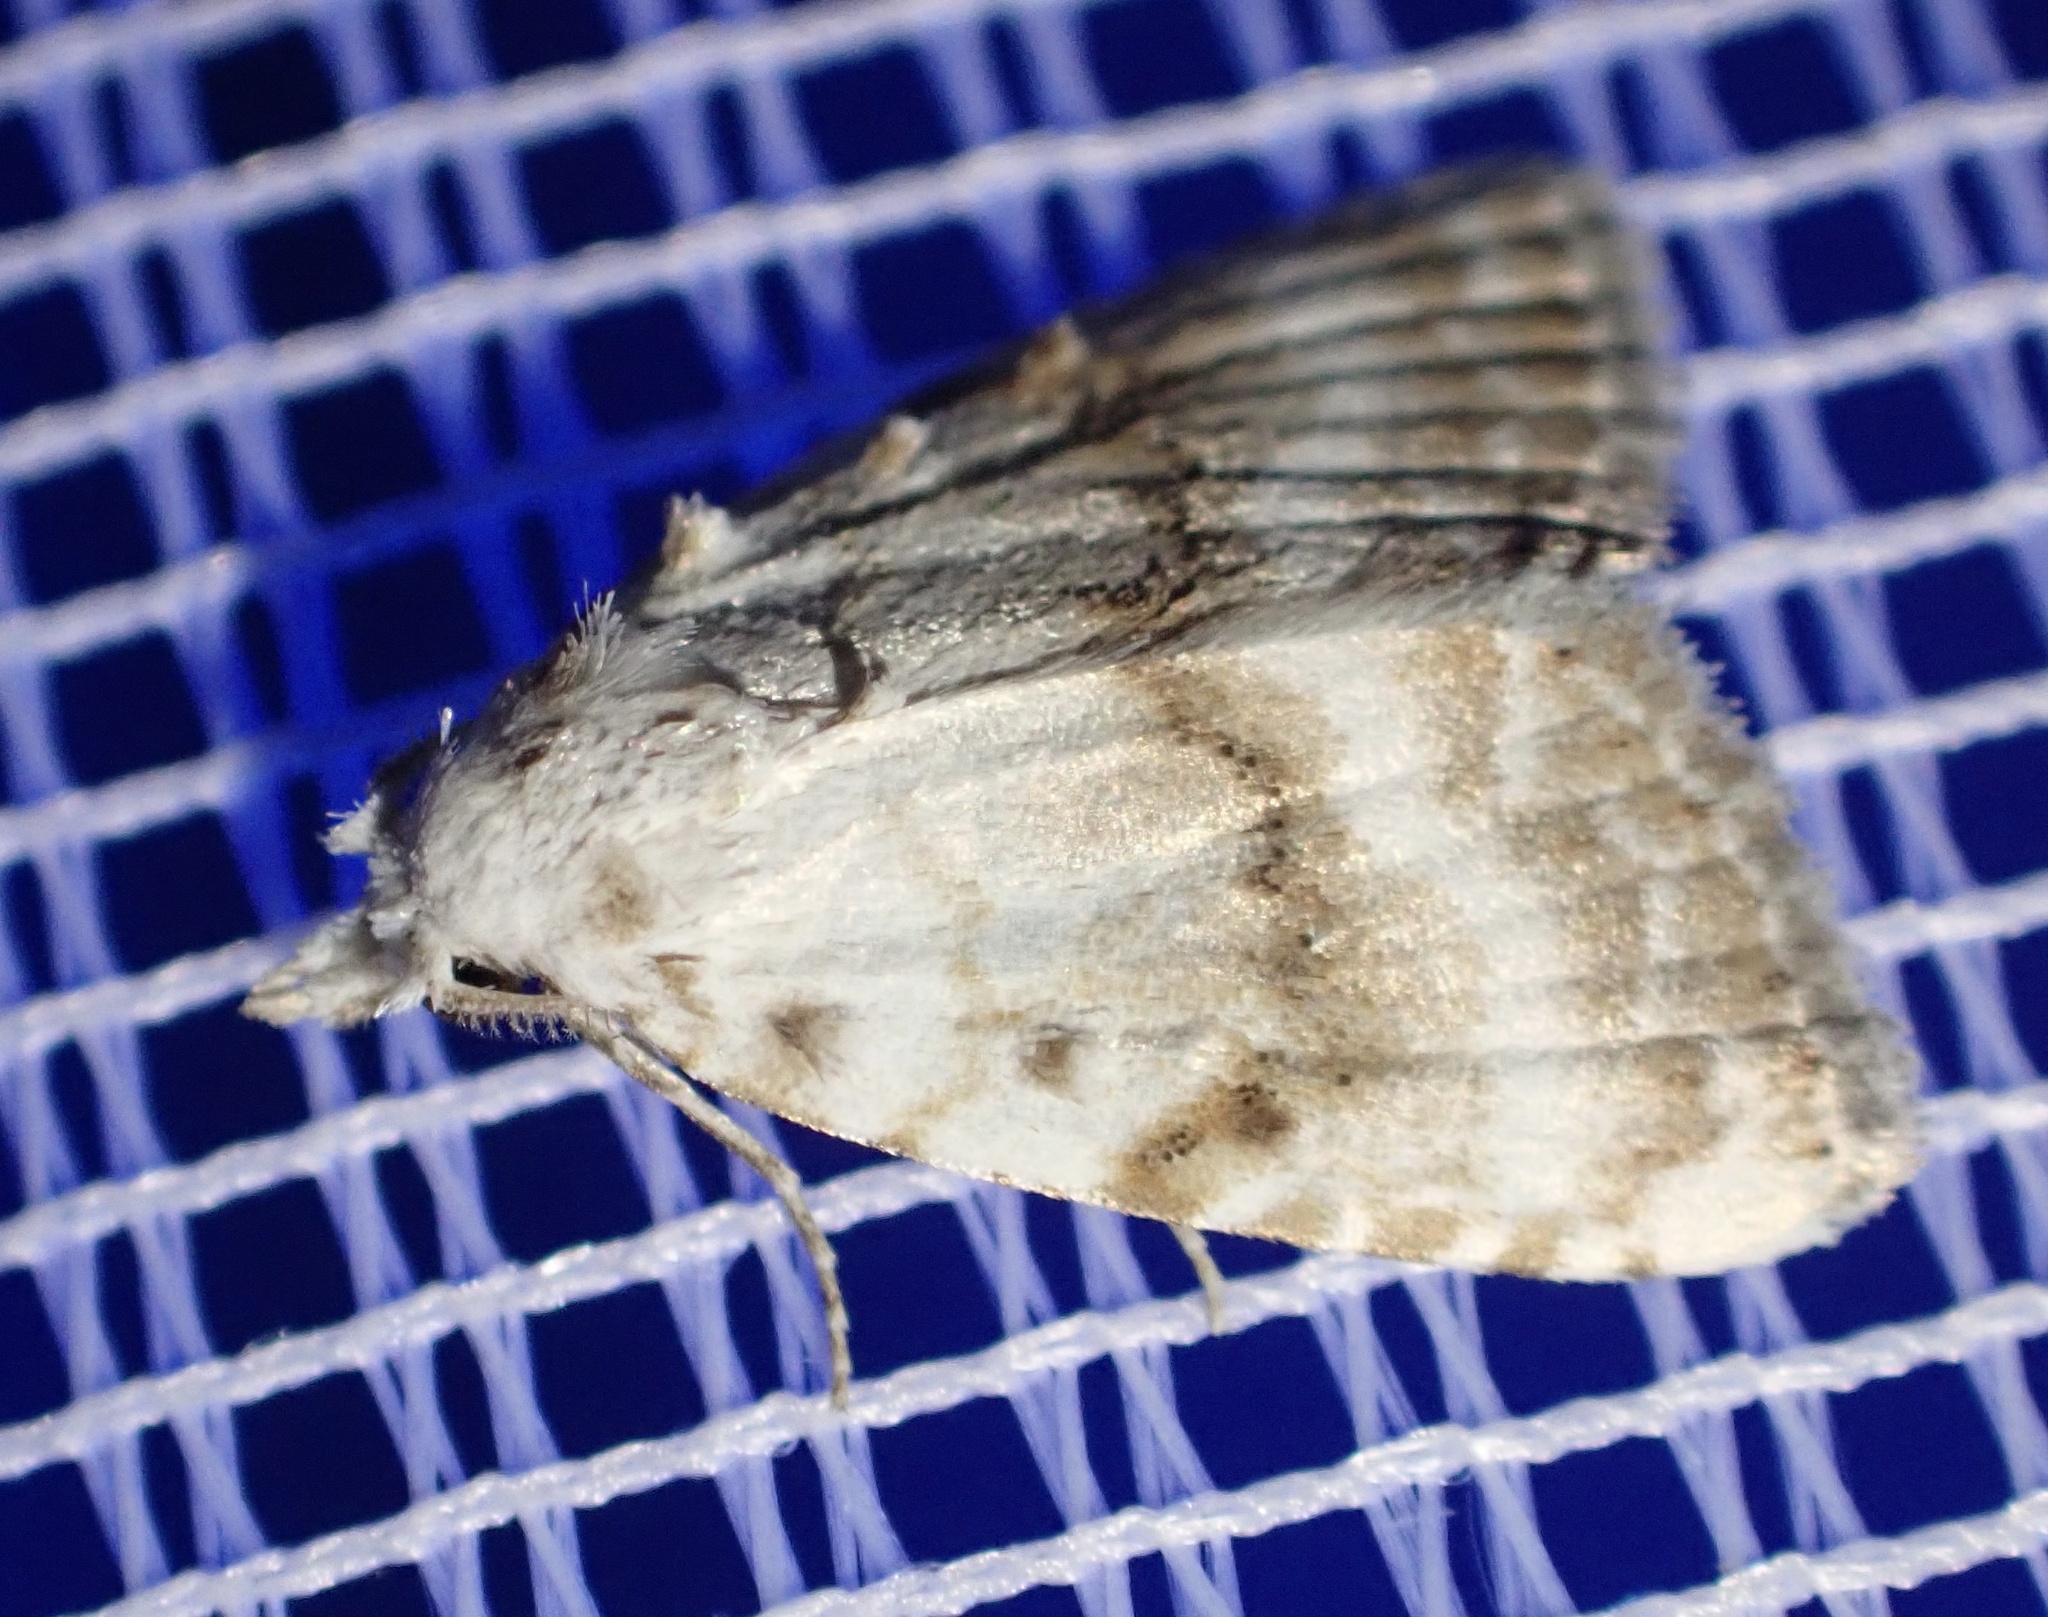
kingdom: Animalia
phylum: Arthropoda
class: Insecta
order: Lepidoptera
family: Nolidae
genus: Meganola
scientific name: Meganola albula
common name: Kent black arches
